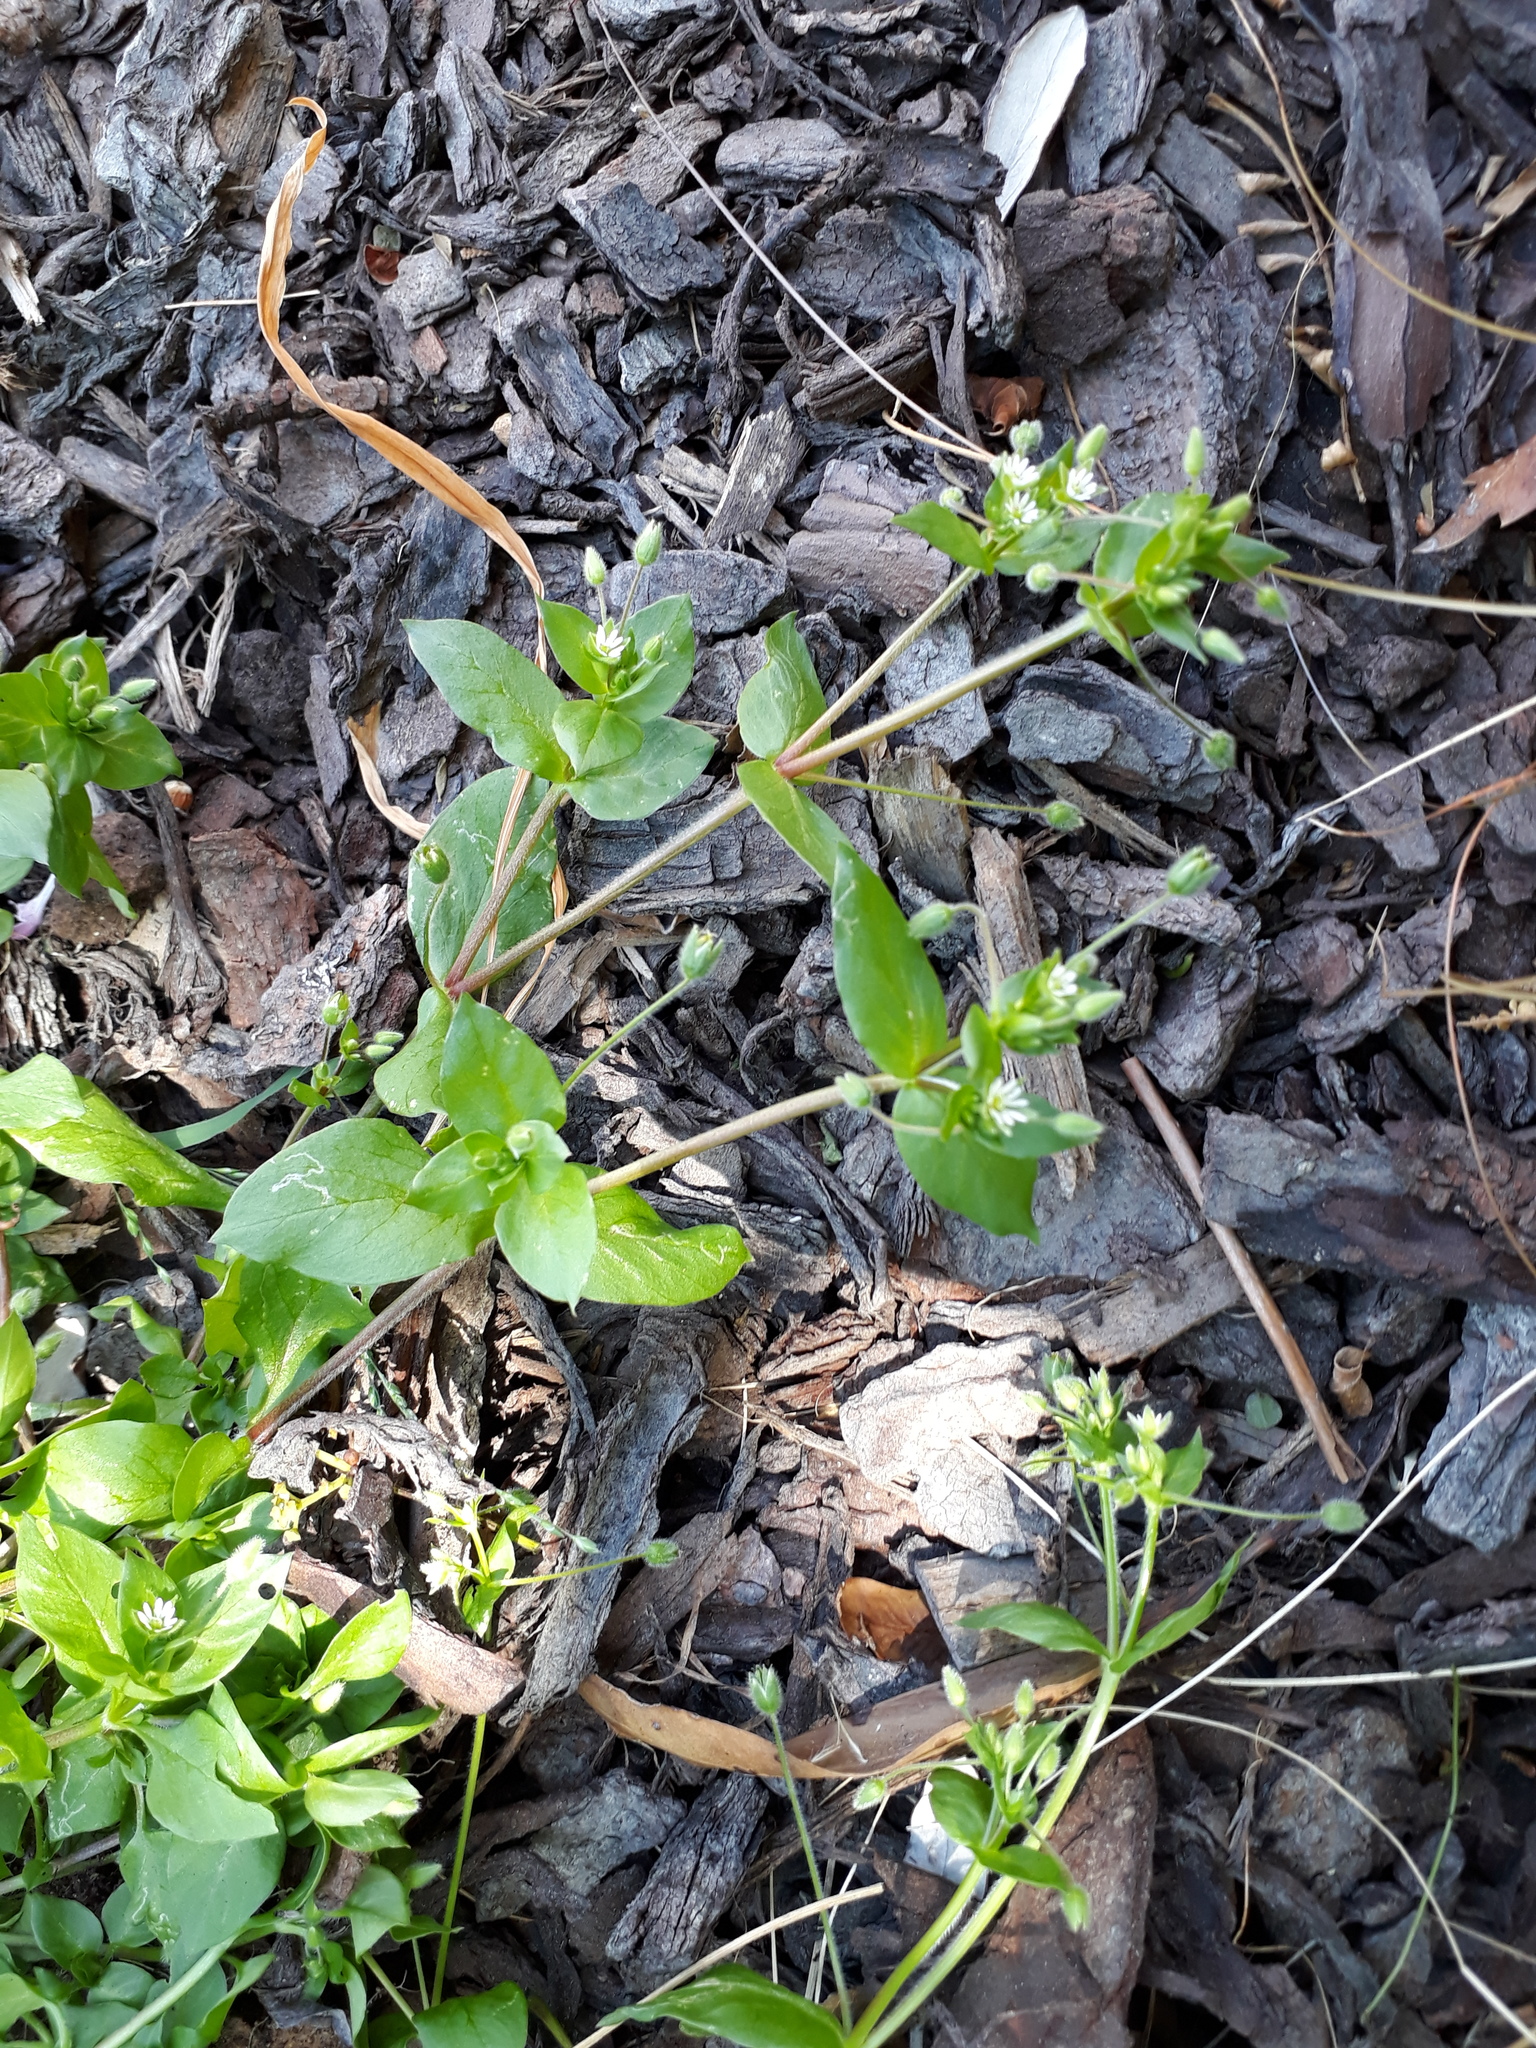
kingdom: Plantae
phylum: Tracheophyta
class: Magnoliopsida
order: Caryophyllales
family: Caryophyllaceae
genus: Stellaria
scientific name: Stellaria media
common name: Common chickweed
